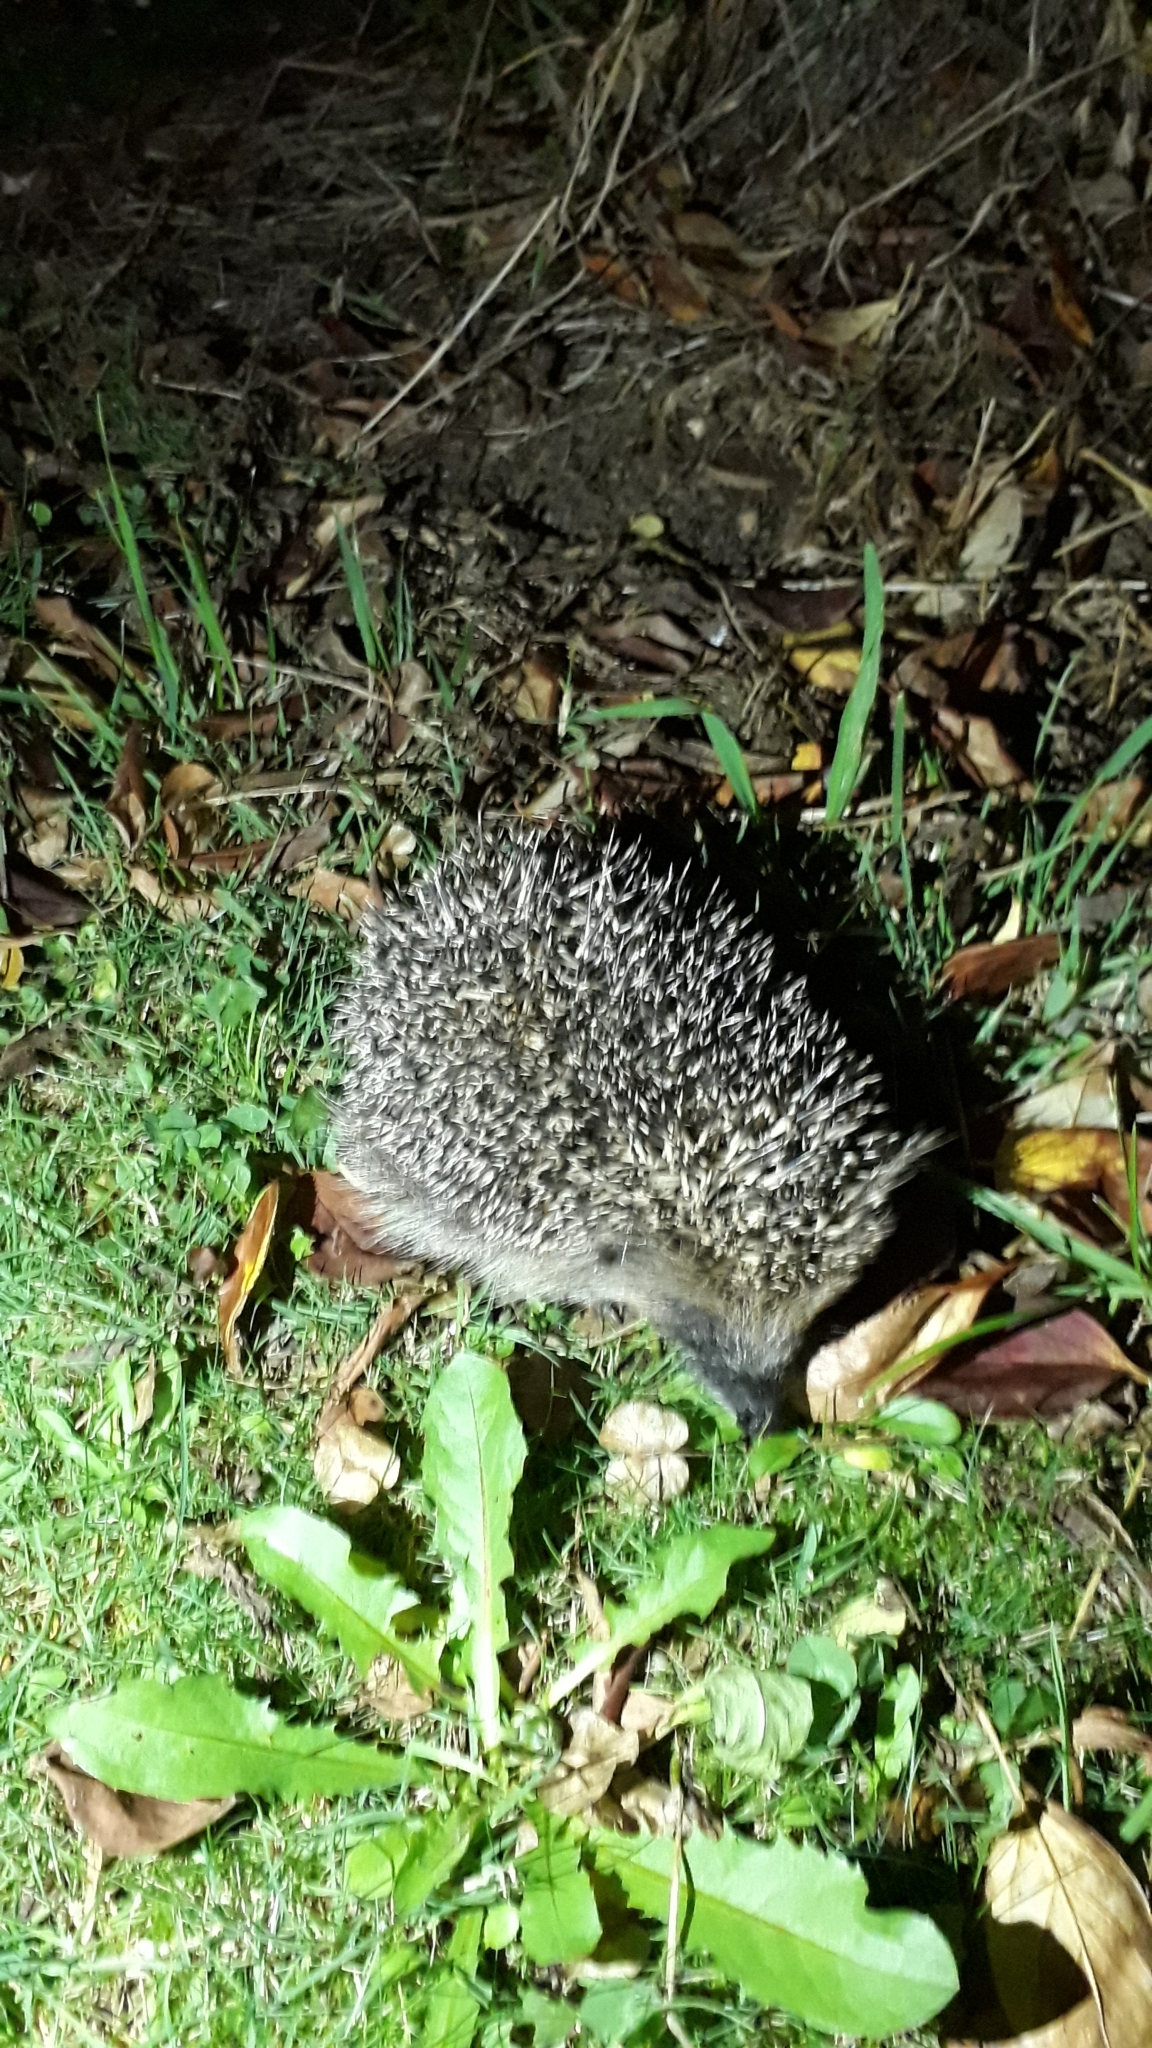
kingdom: Animalia
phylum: Chordata
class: Mammalia
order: Erinaceomorpha
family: Erinaceidae
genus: Erinaceus
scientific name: Erinaceus europaeus
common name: West european hedgehog
